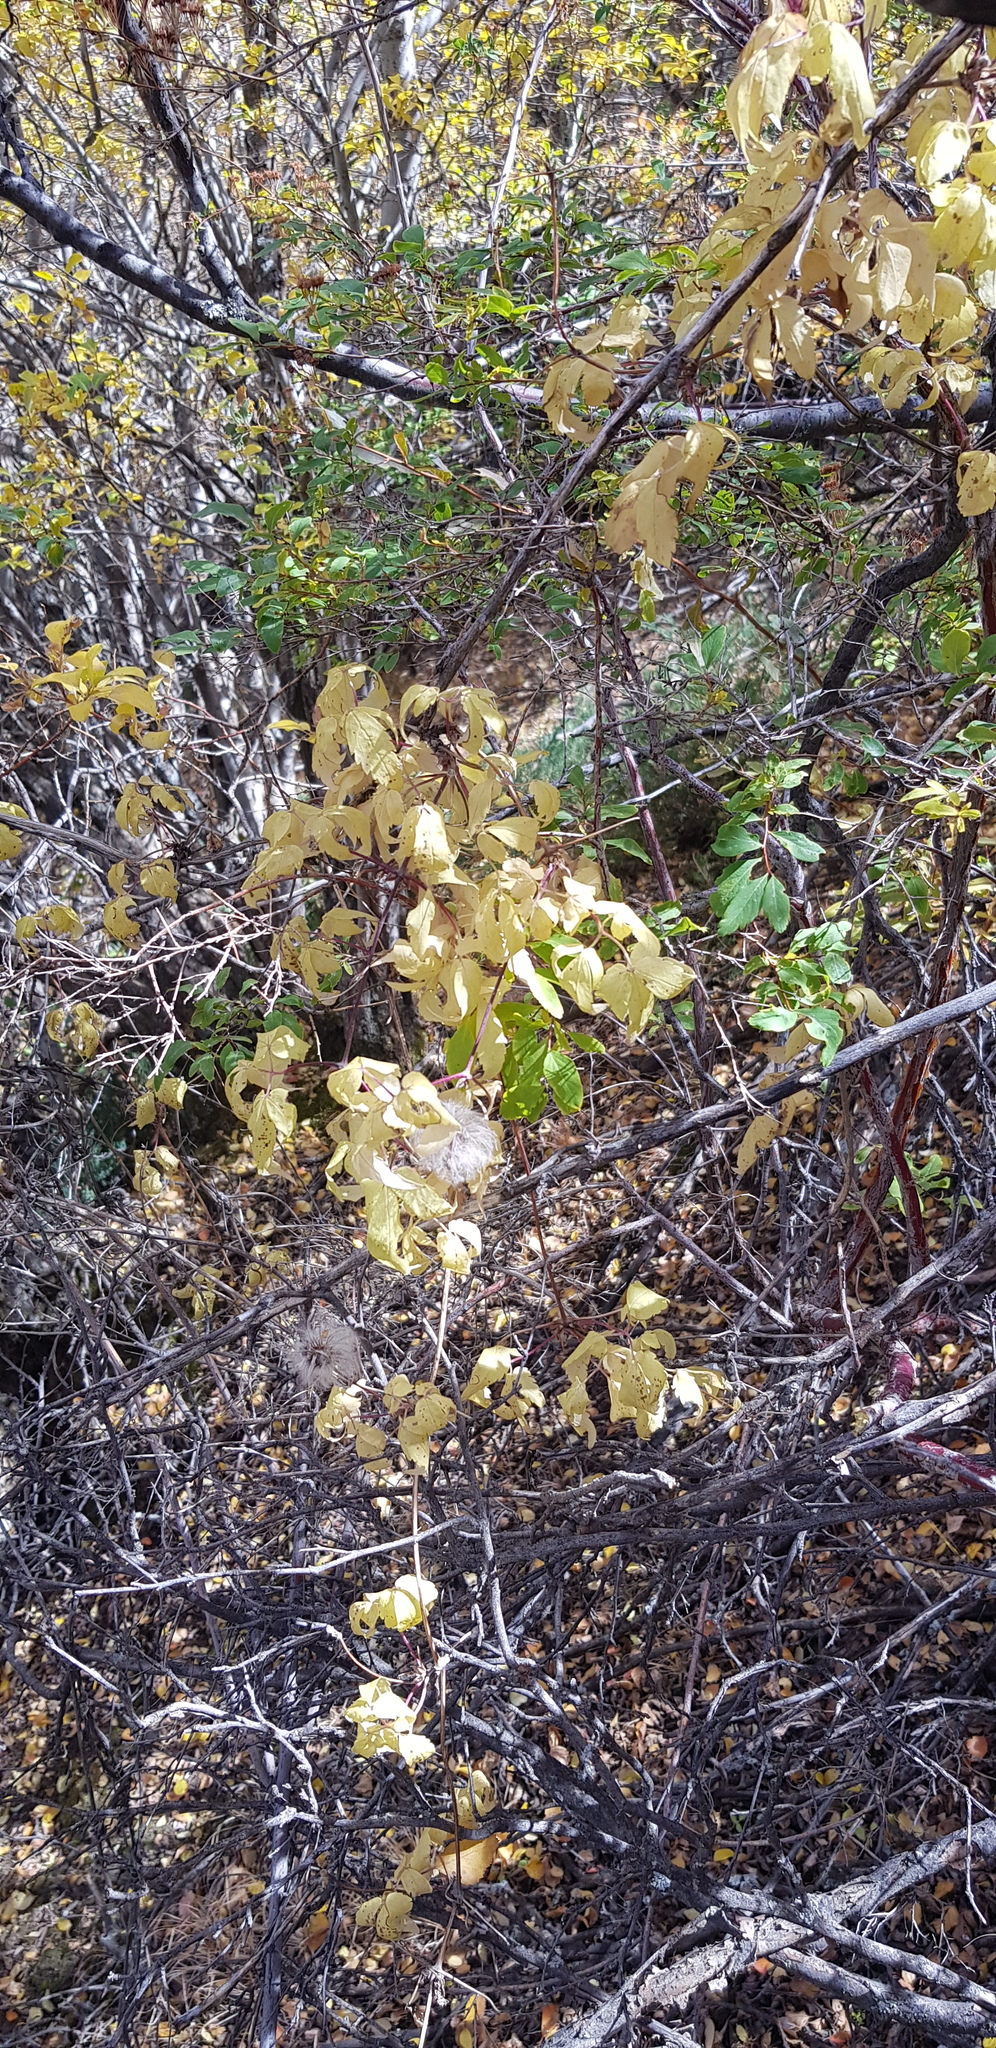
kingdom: Plantae
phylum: Tracheophyta
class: Magnoliopsida
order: Ranunculales
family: Ranunculaceae
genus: Clematis
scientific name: Clematis tangutica
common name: Orange-peel clematis
